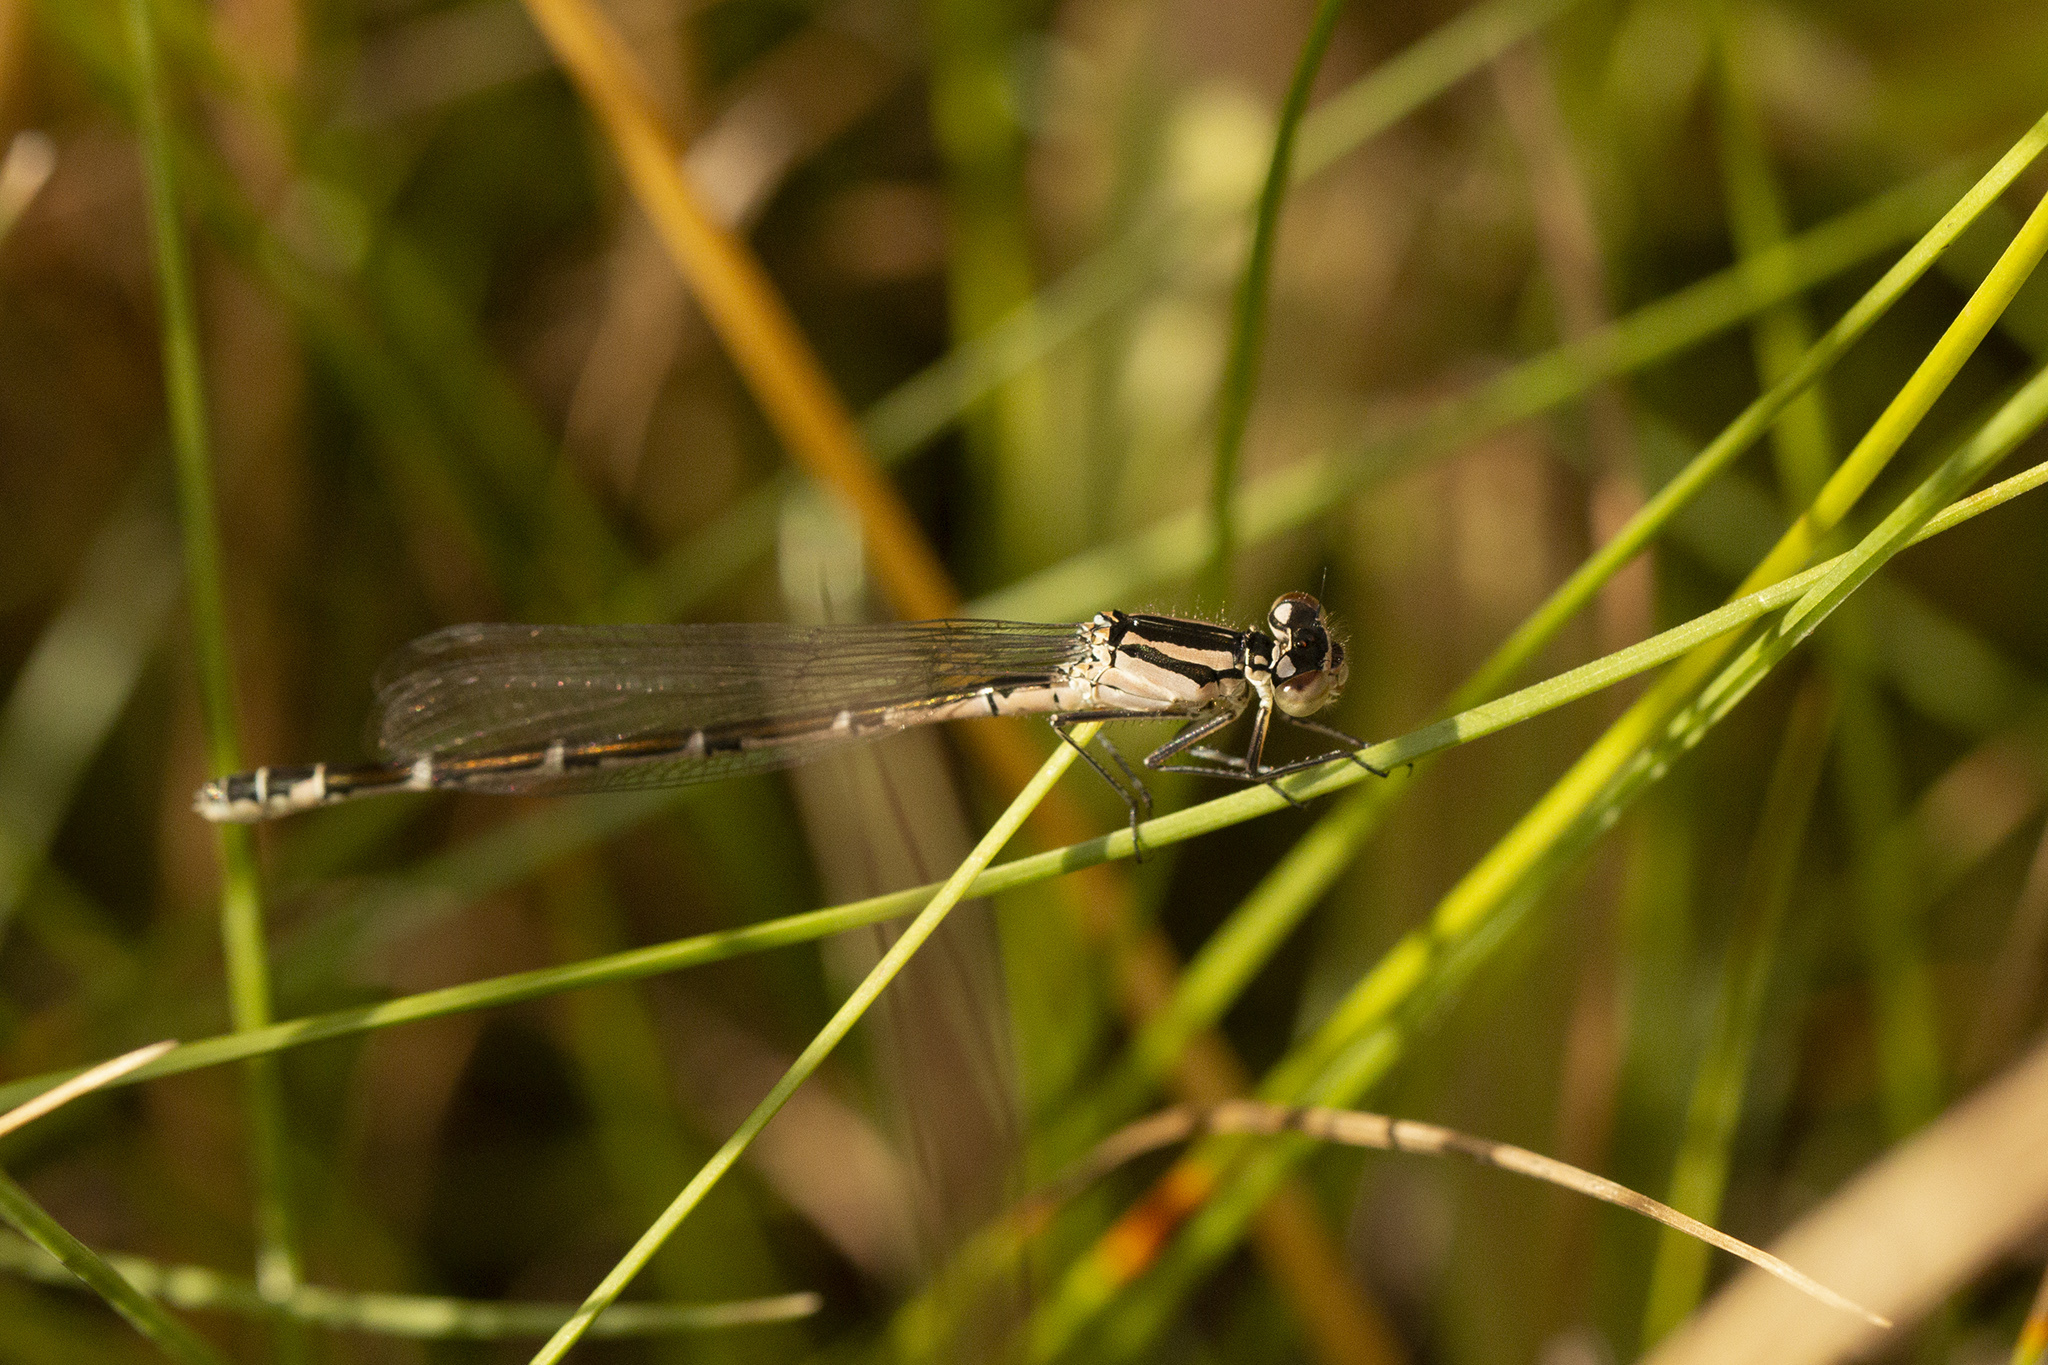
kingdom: Animalia
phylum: Arthropoda
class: Insecta
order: Odonata
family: Coenagrionidae
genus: Enallagma
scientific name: Enallagma cyathigerum
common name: Common blue damselfly
